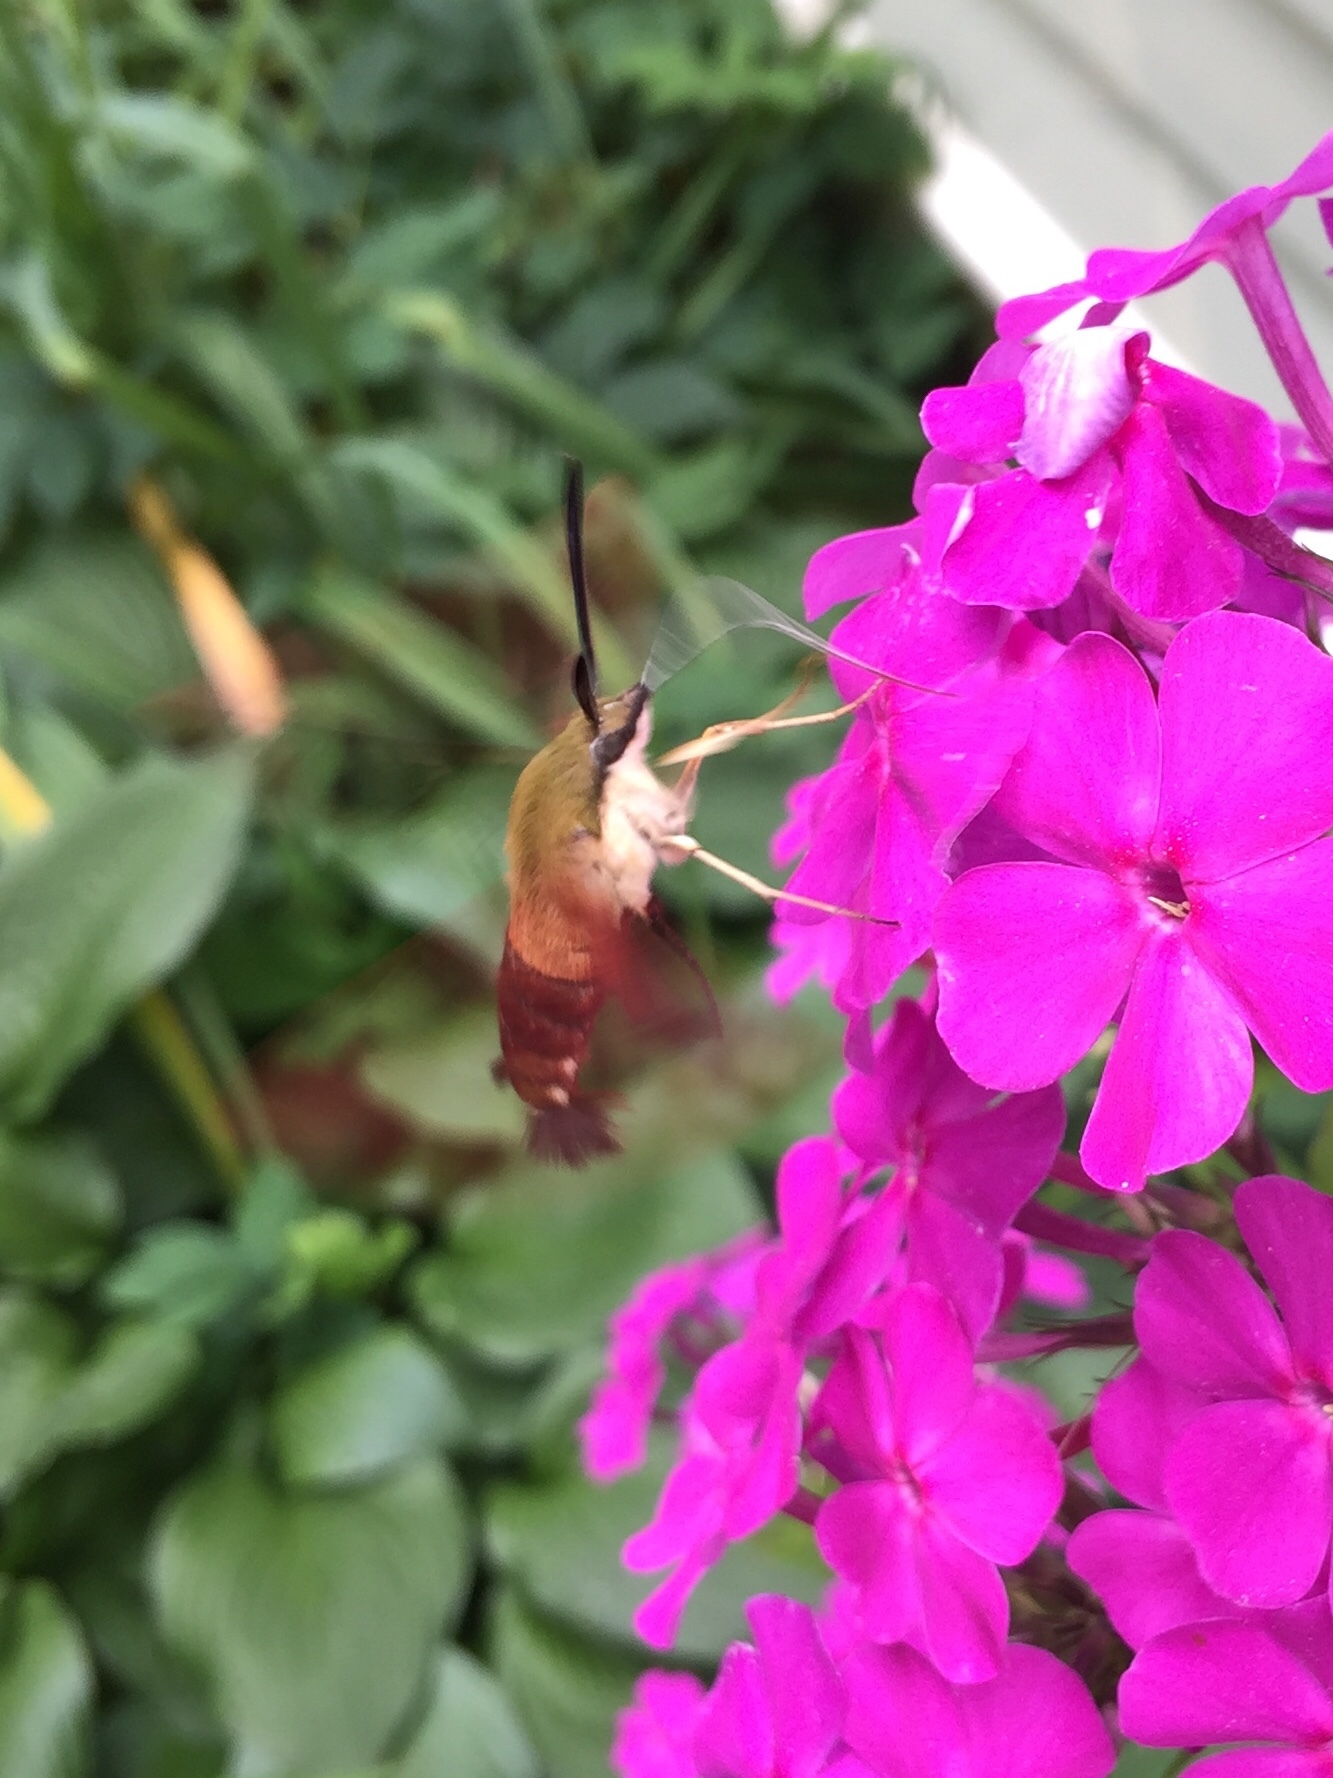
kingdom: Animalia
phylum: Arthropoda
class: Insecta
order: Lepidoptera
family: Sphingidae
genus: Hemaris
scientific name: Hemaris thysbe
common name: Common clear-wing
